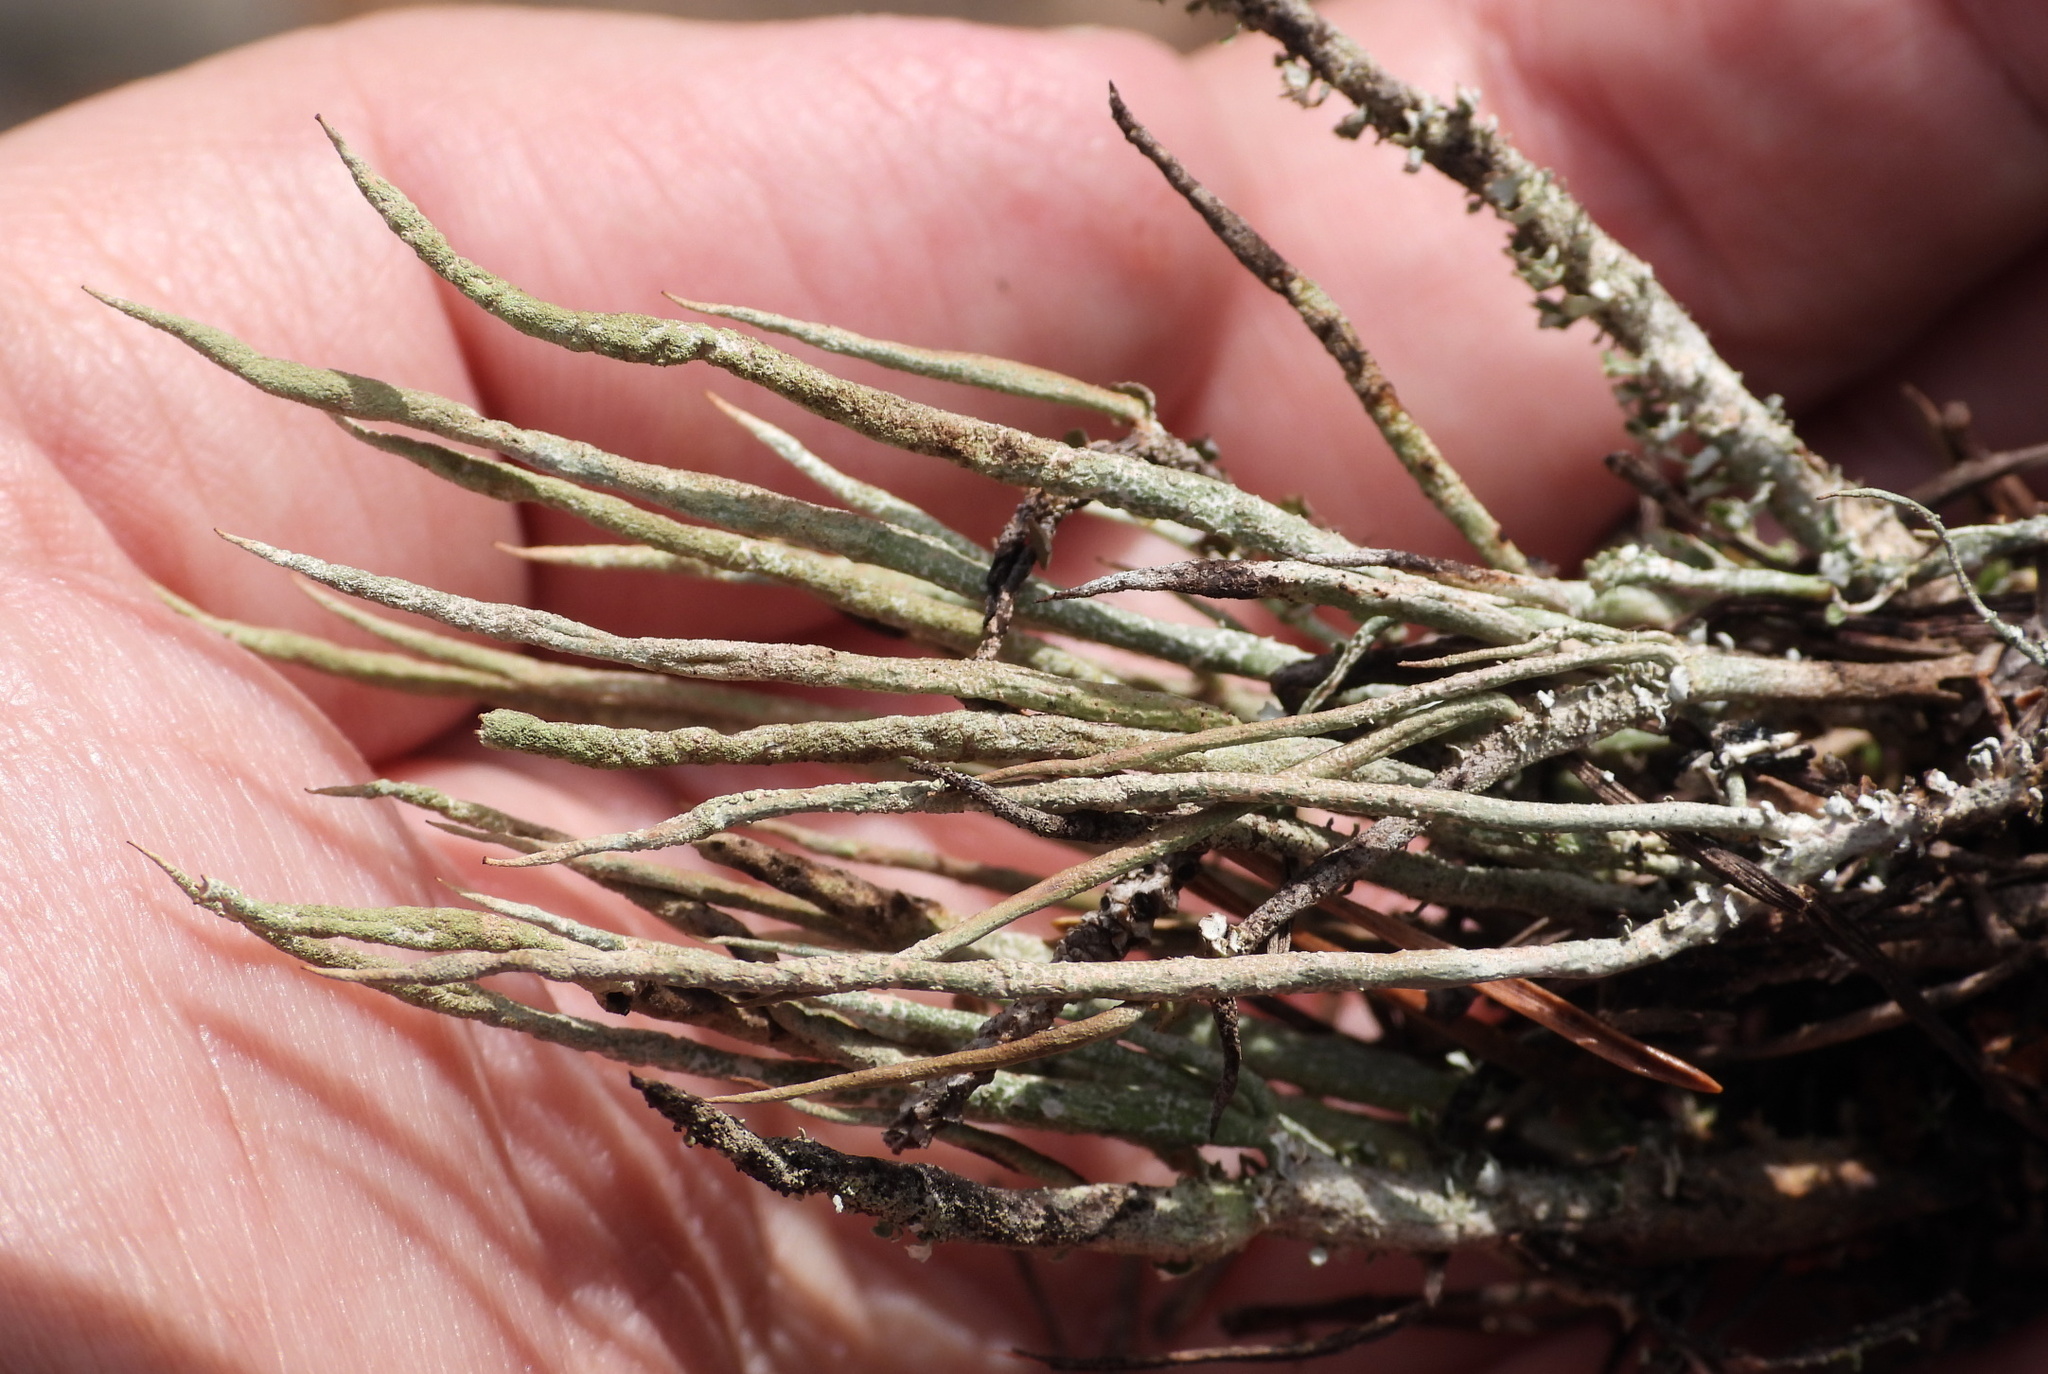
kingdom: Fungi
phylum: Ascomycota
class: Lecanoromycetes
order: Lecanorales
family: Cladoniaceae
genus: Cladonia
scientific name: Cladonia cornuta
